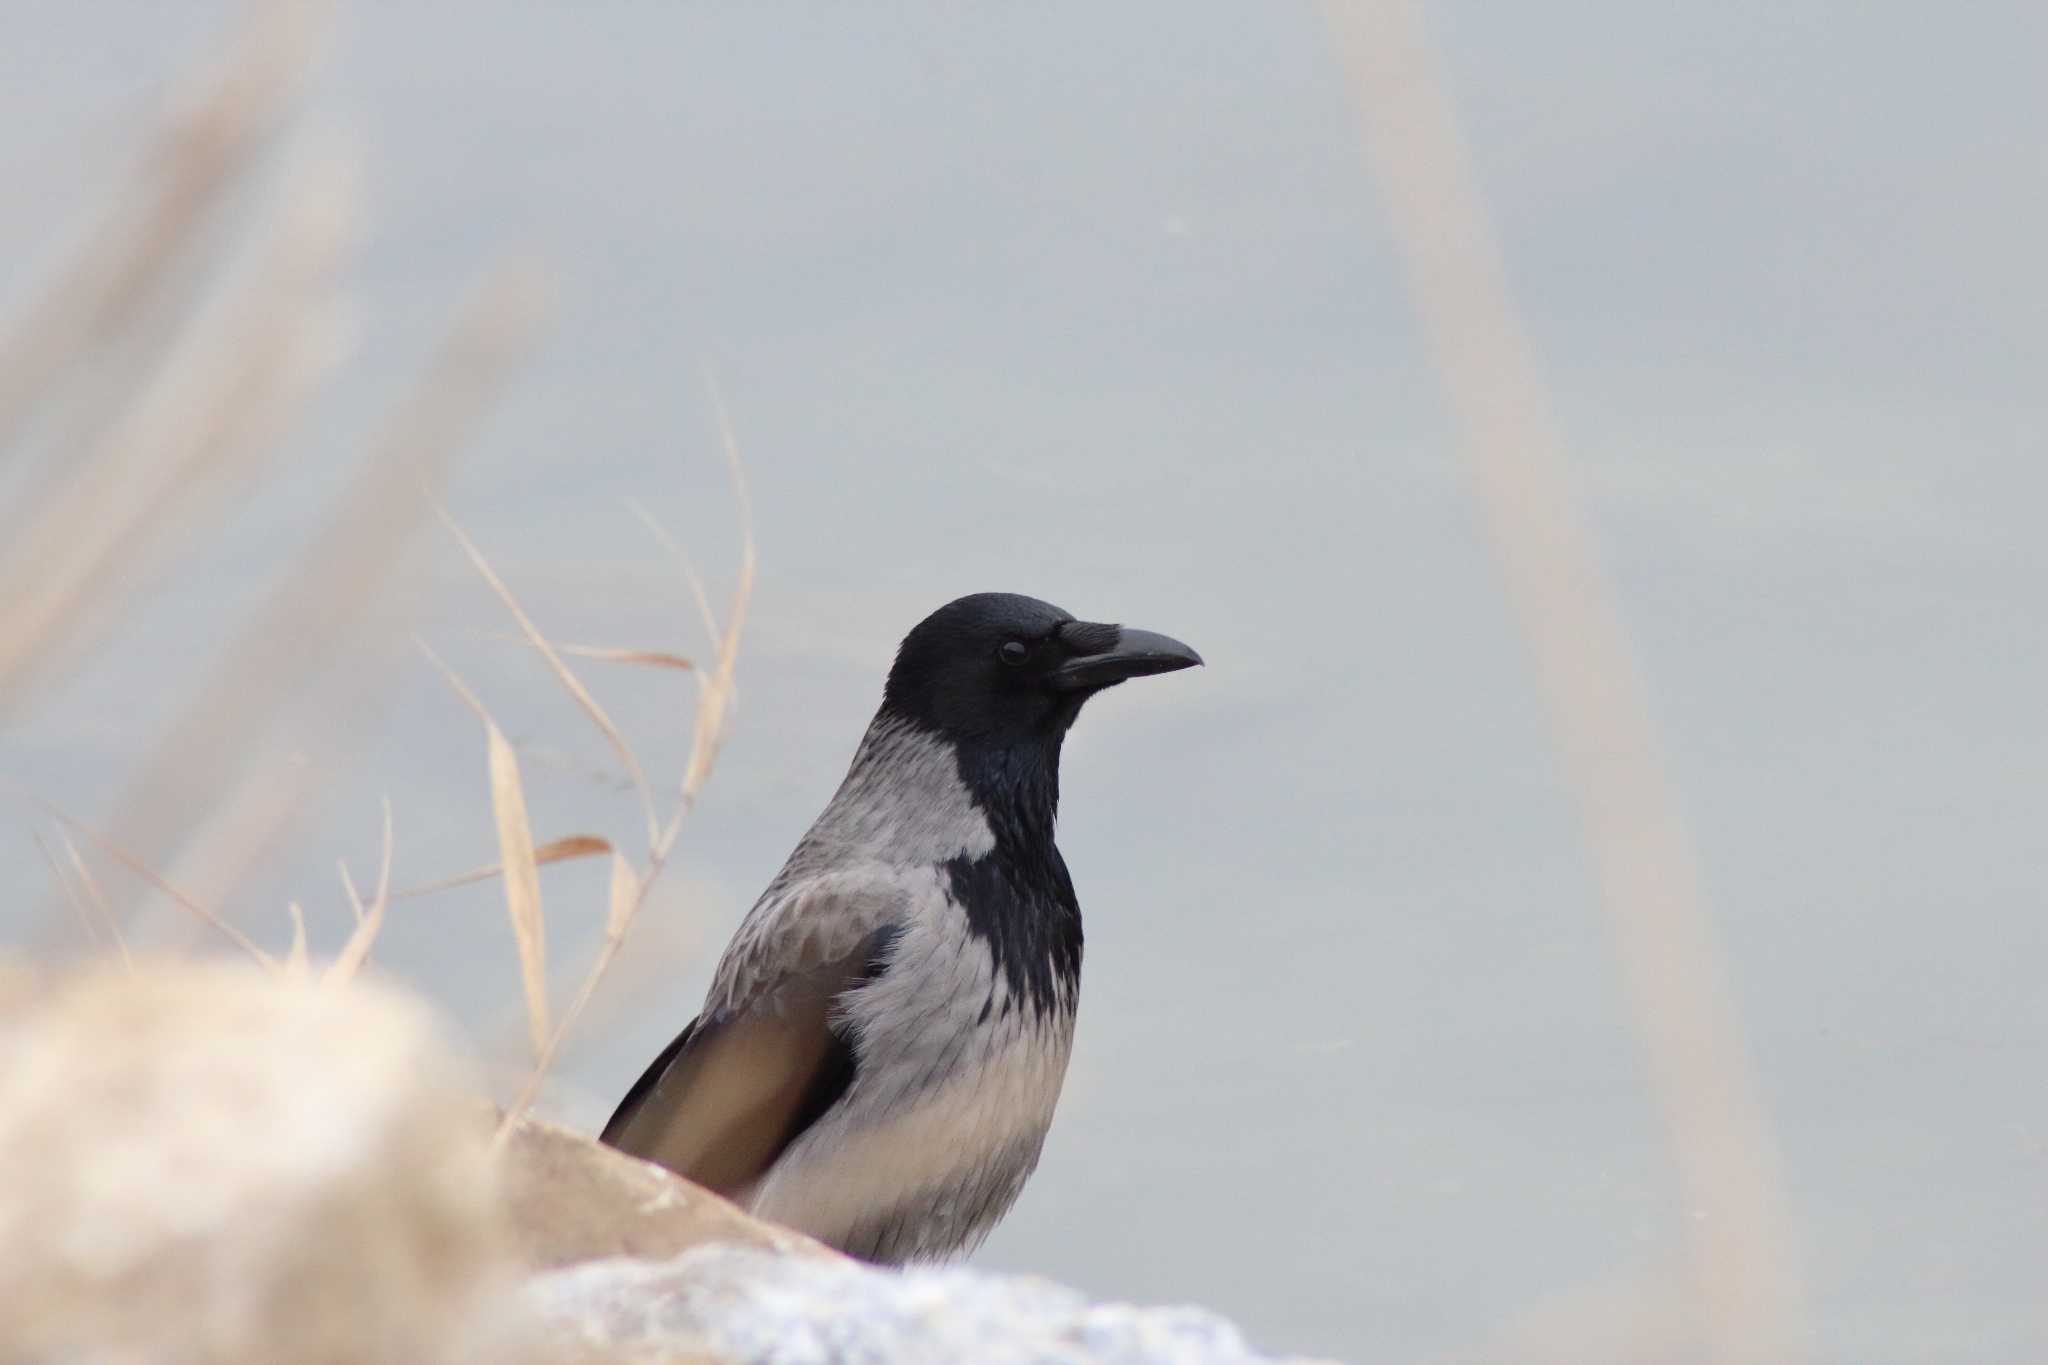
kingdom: Animalia
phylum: Chordata
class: Aves
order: Passeriformes
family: Corvidae
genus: Corvus
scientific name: Corvus
